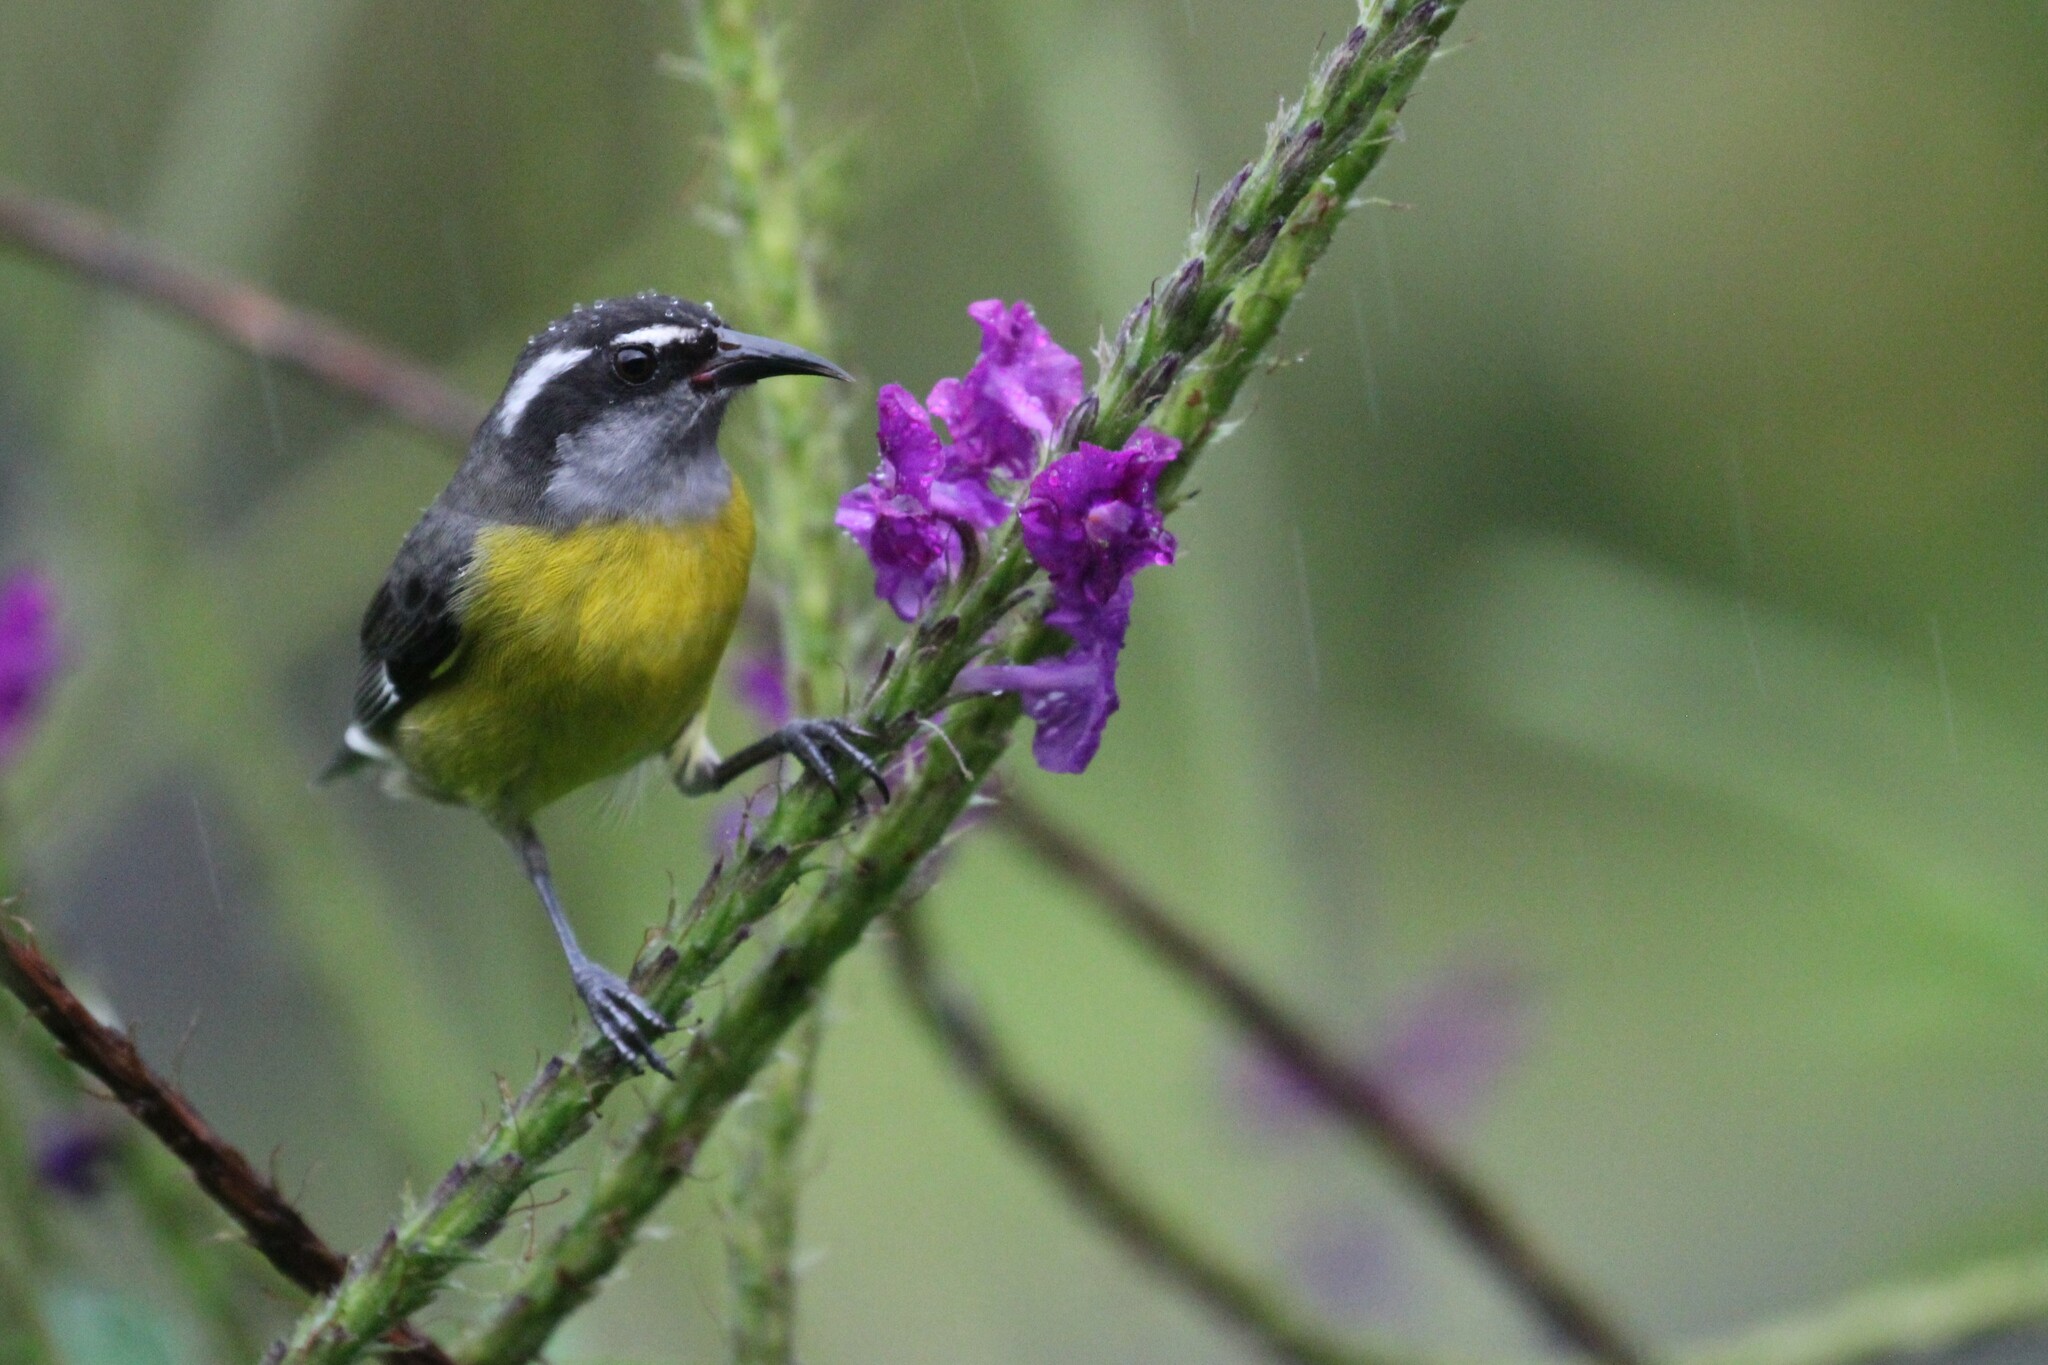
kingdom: Animalia
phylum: Chordata
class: Aves
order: Passeriformes
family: Thraupidae
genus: Coereba
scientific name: Coereba flaveola
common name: Bananaquit
